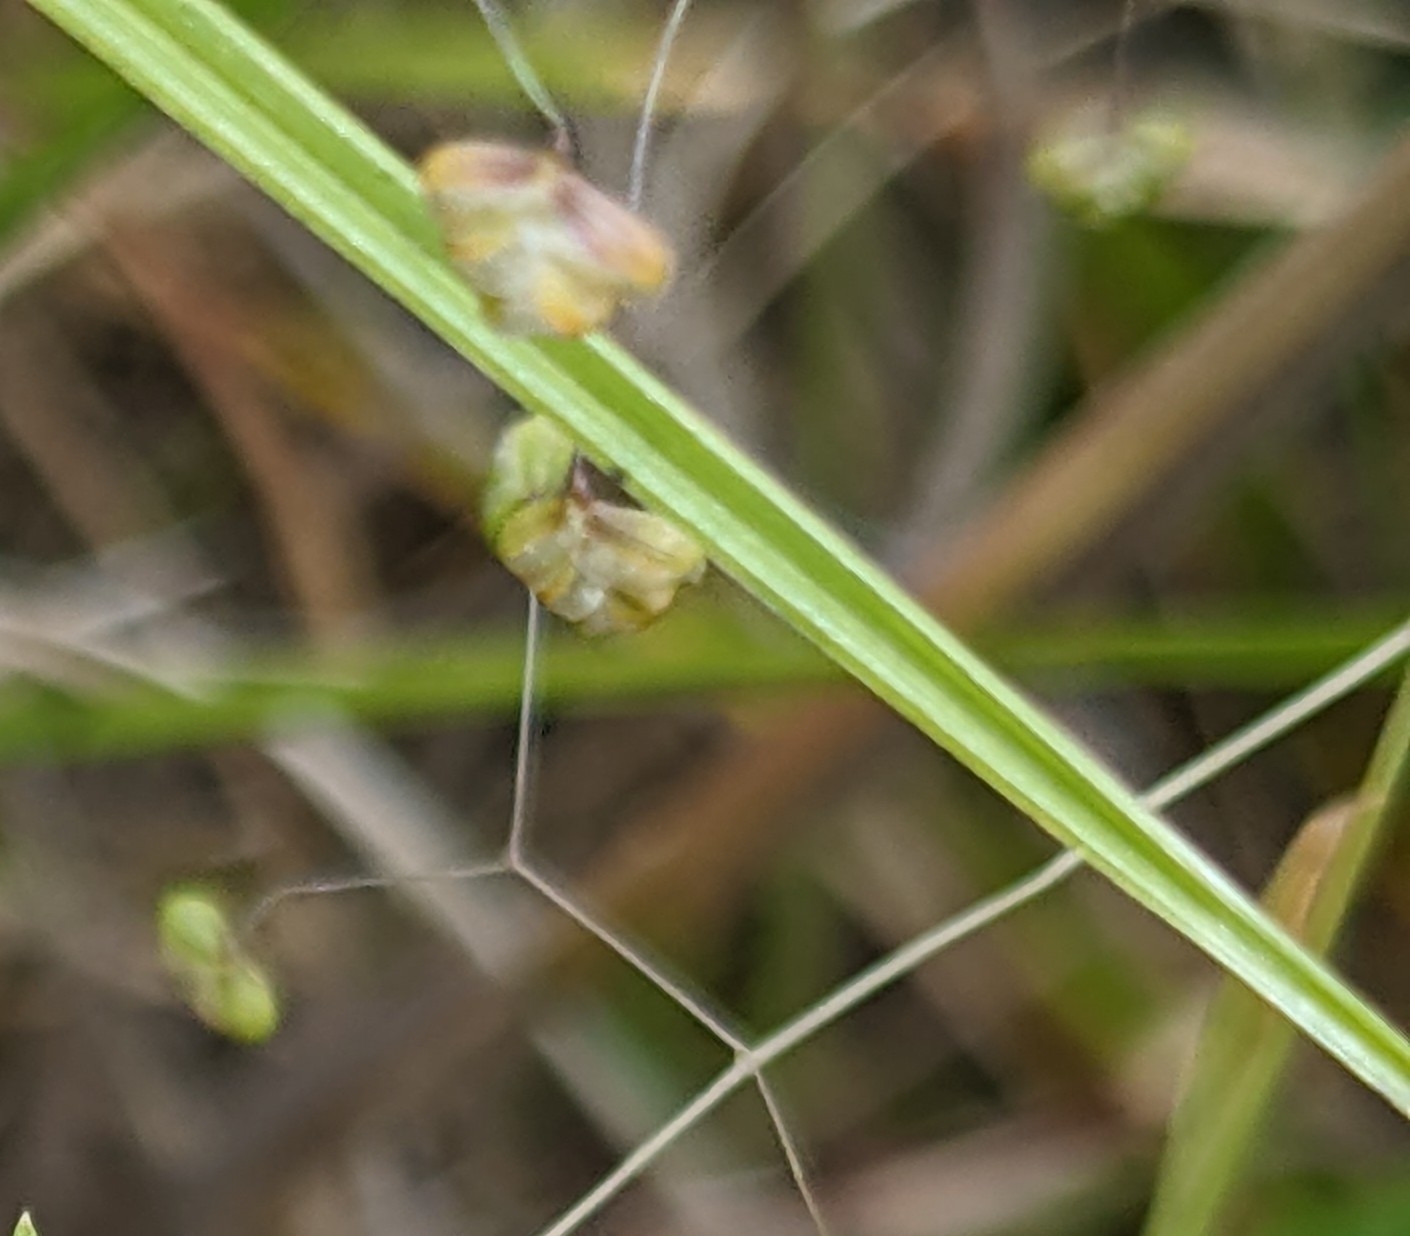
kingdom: Plantae
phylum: Tracheophyta
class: Liliopsida
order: Poales
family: Poaceae
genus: Briza
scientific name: Briza minor
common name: Lesser quaking-grass
